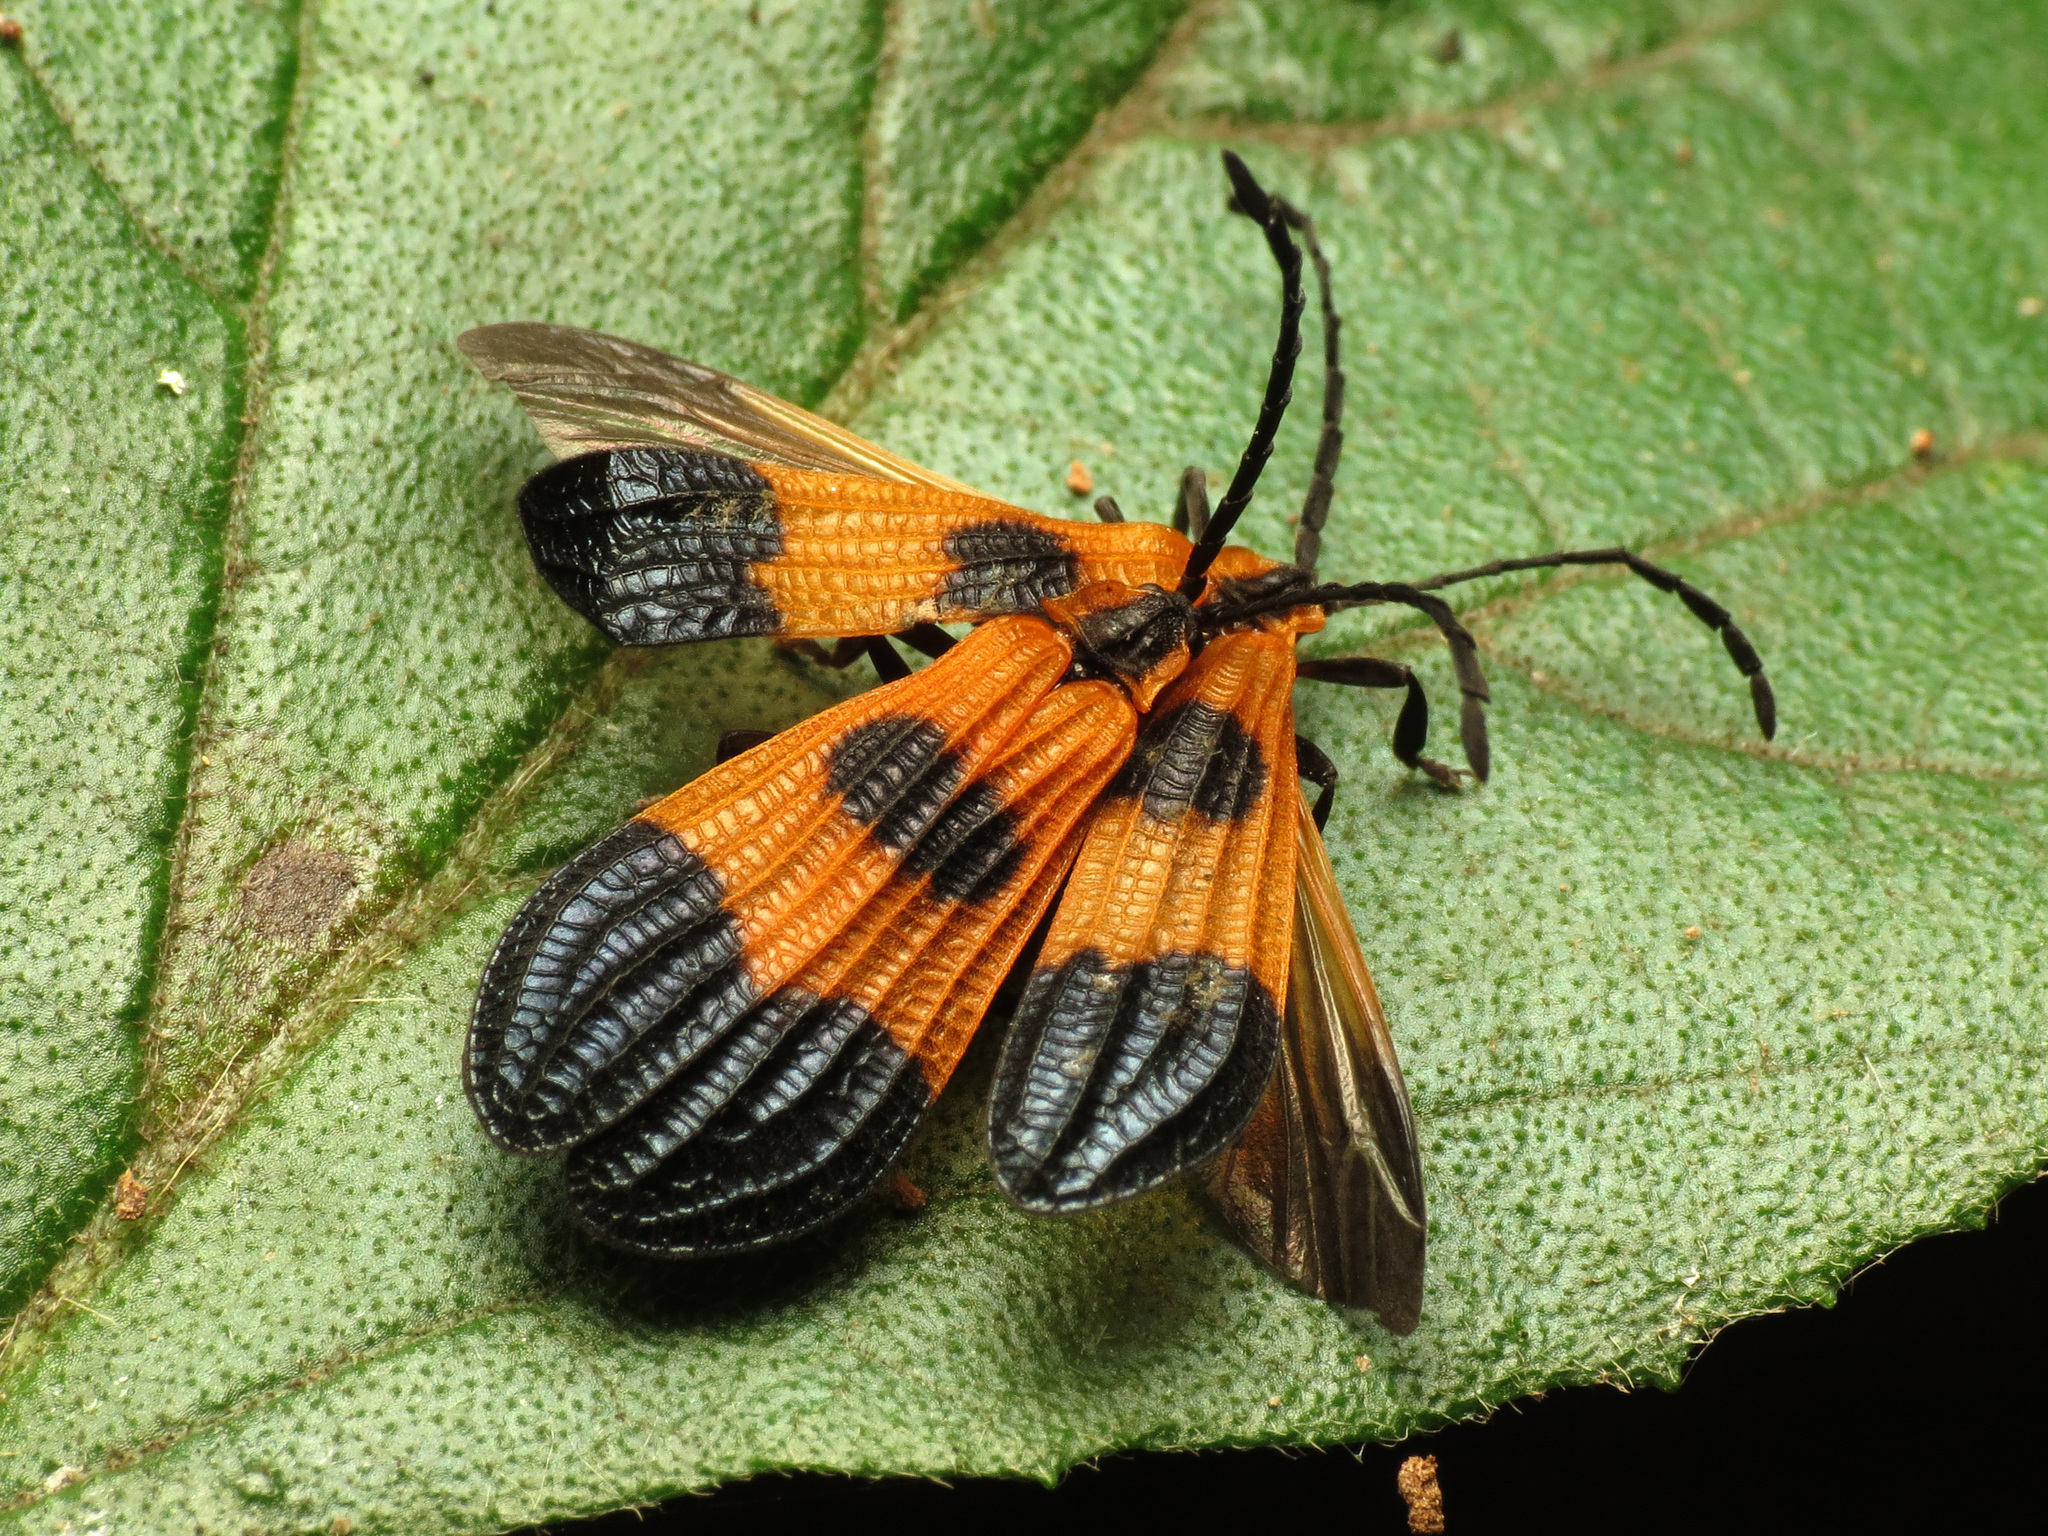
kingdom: Animalia
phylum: Arthropoda
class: Insecta
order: Coleoptera
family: Lycidae
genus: Calopteron
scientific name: Calopteron terminale
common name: End band net-winged beetle
